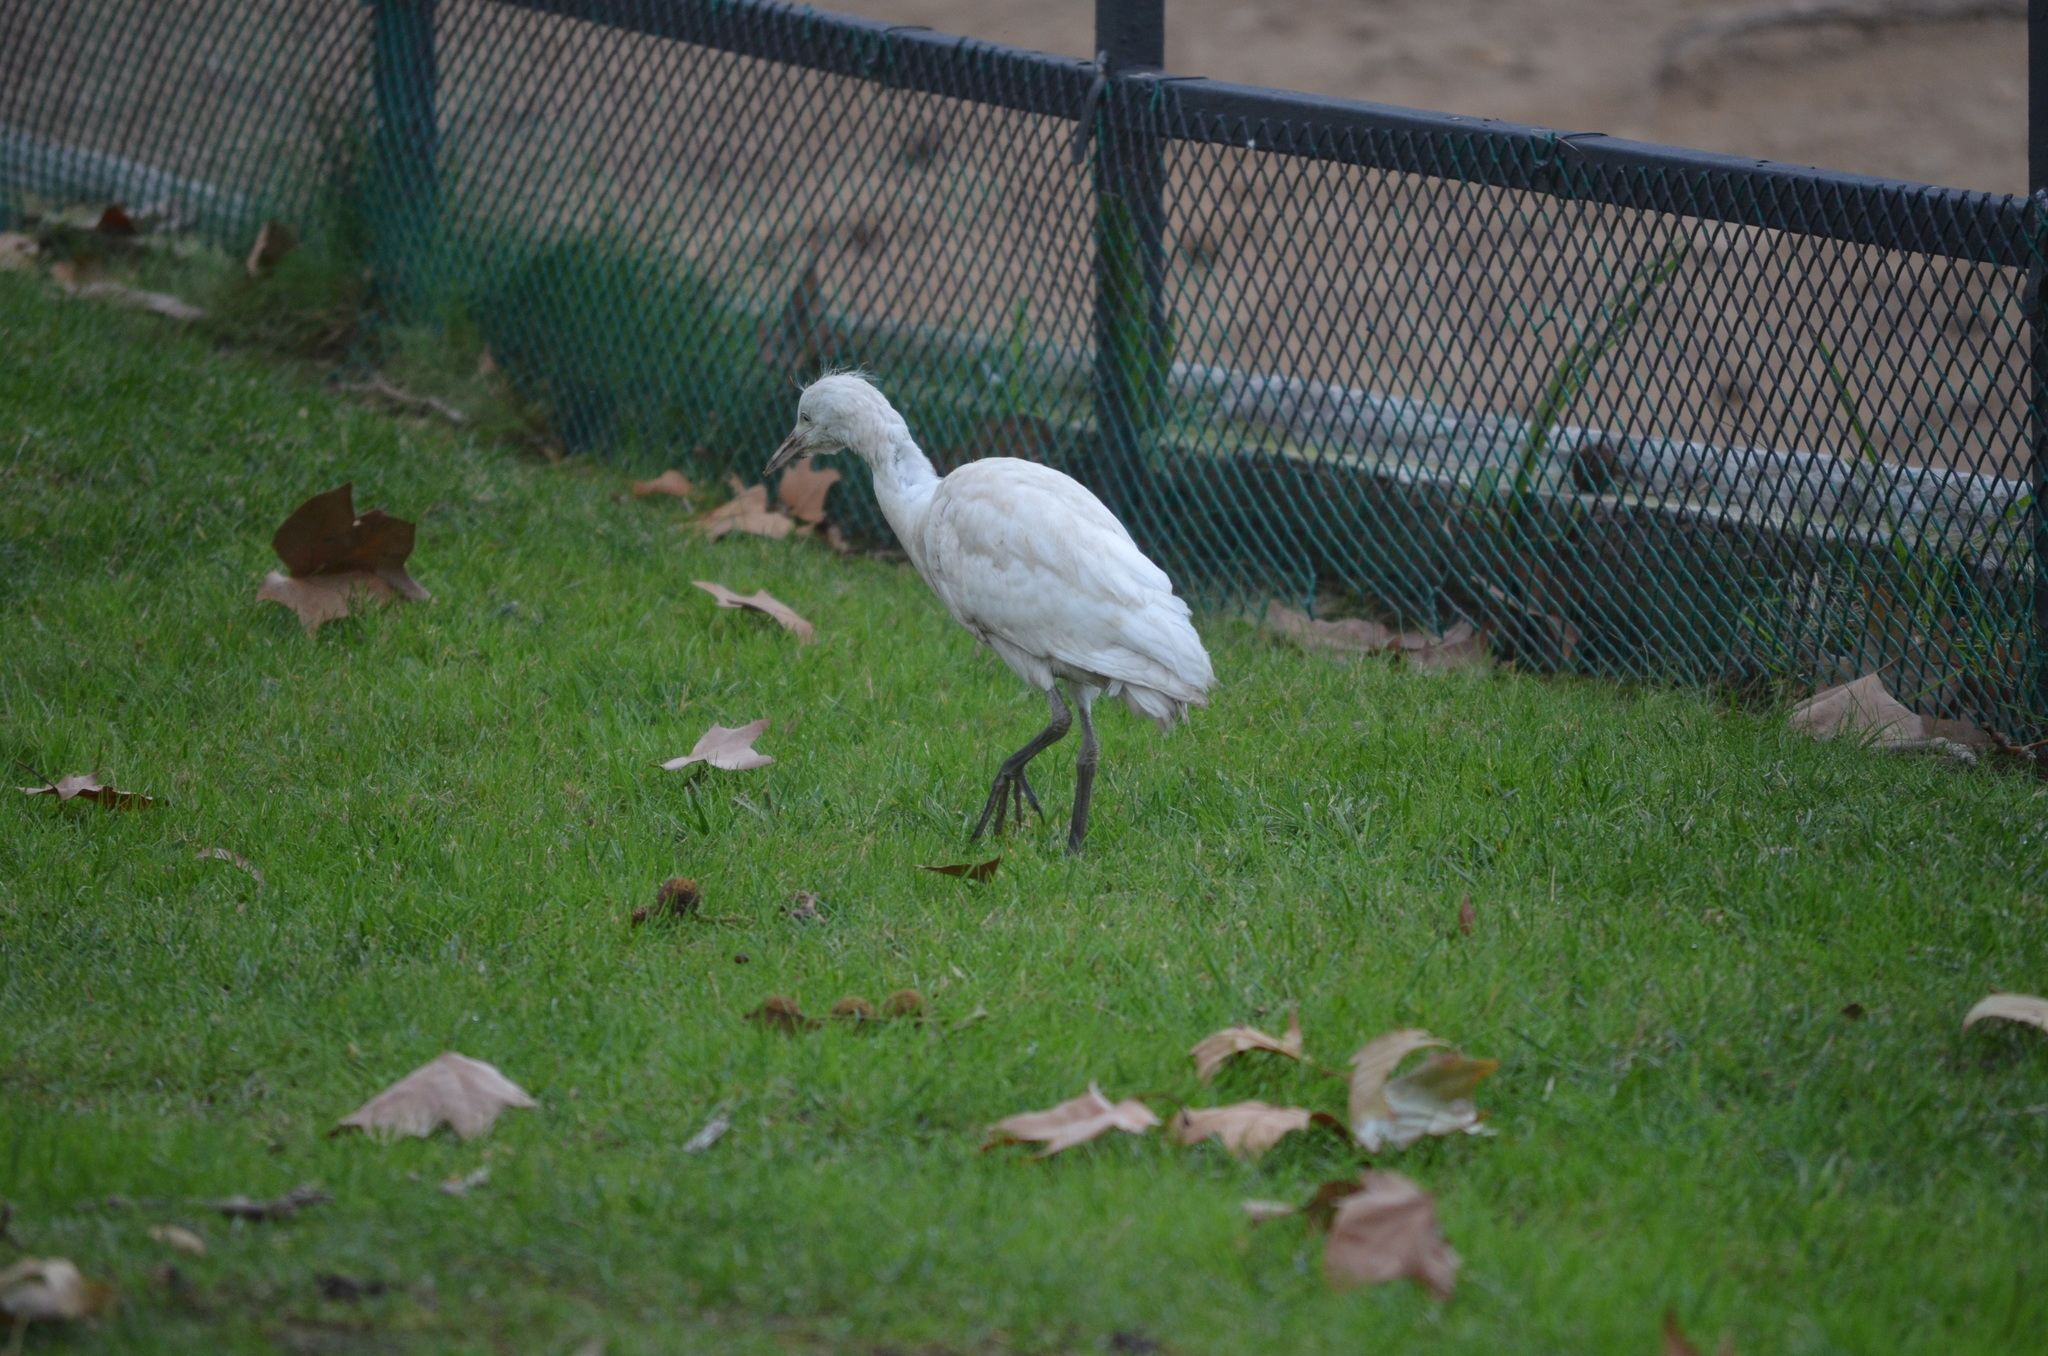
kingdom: Animalia
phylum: Chordata
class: Aves
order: Pelecaniformes
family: Ardeidae
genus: Bubulcus
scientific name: Bubulcus ibis
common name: Cattle egret
